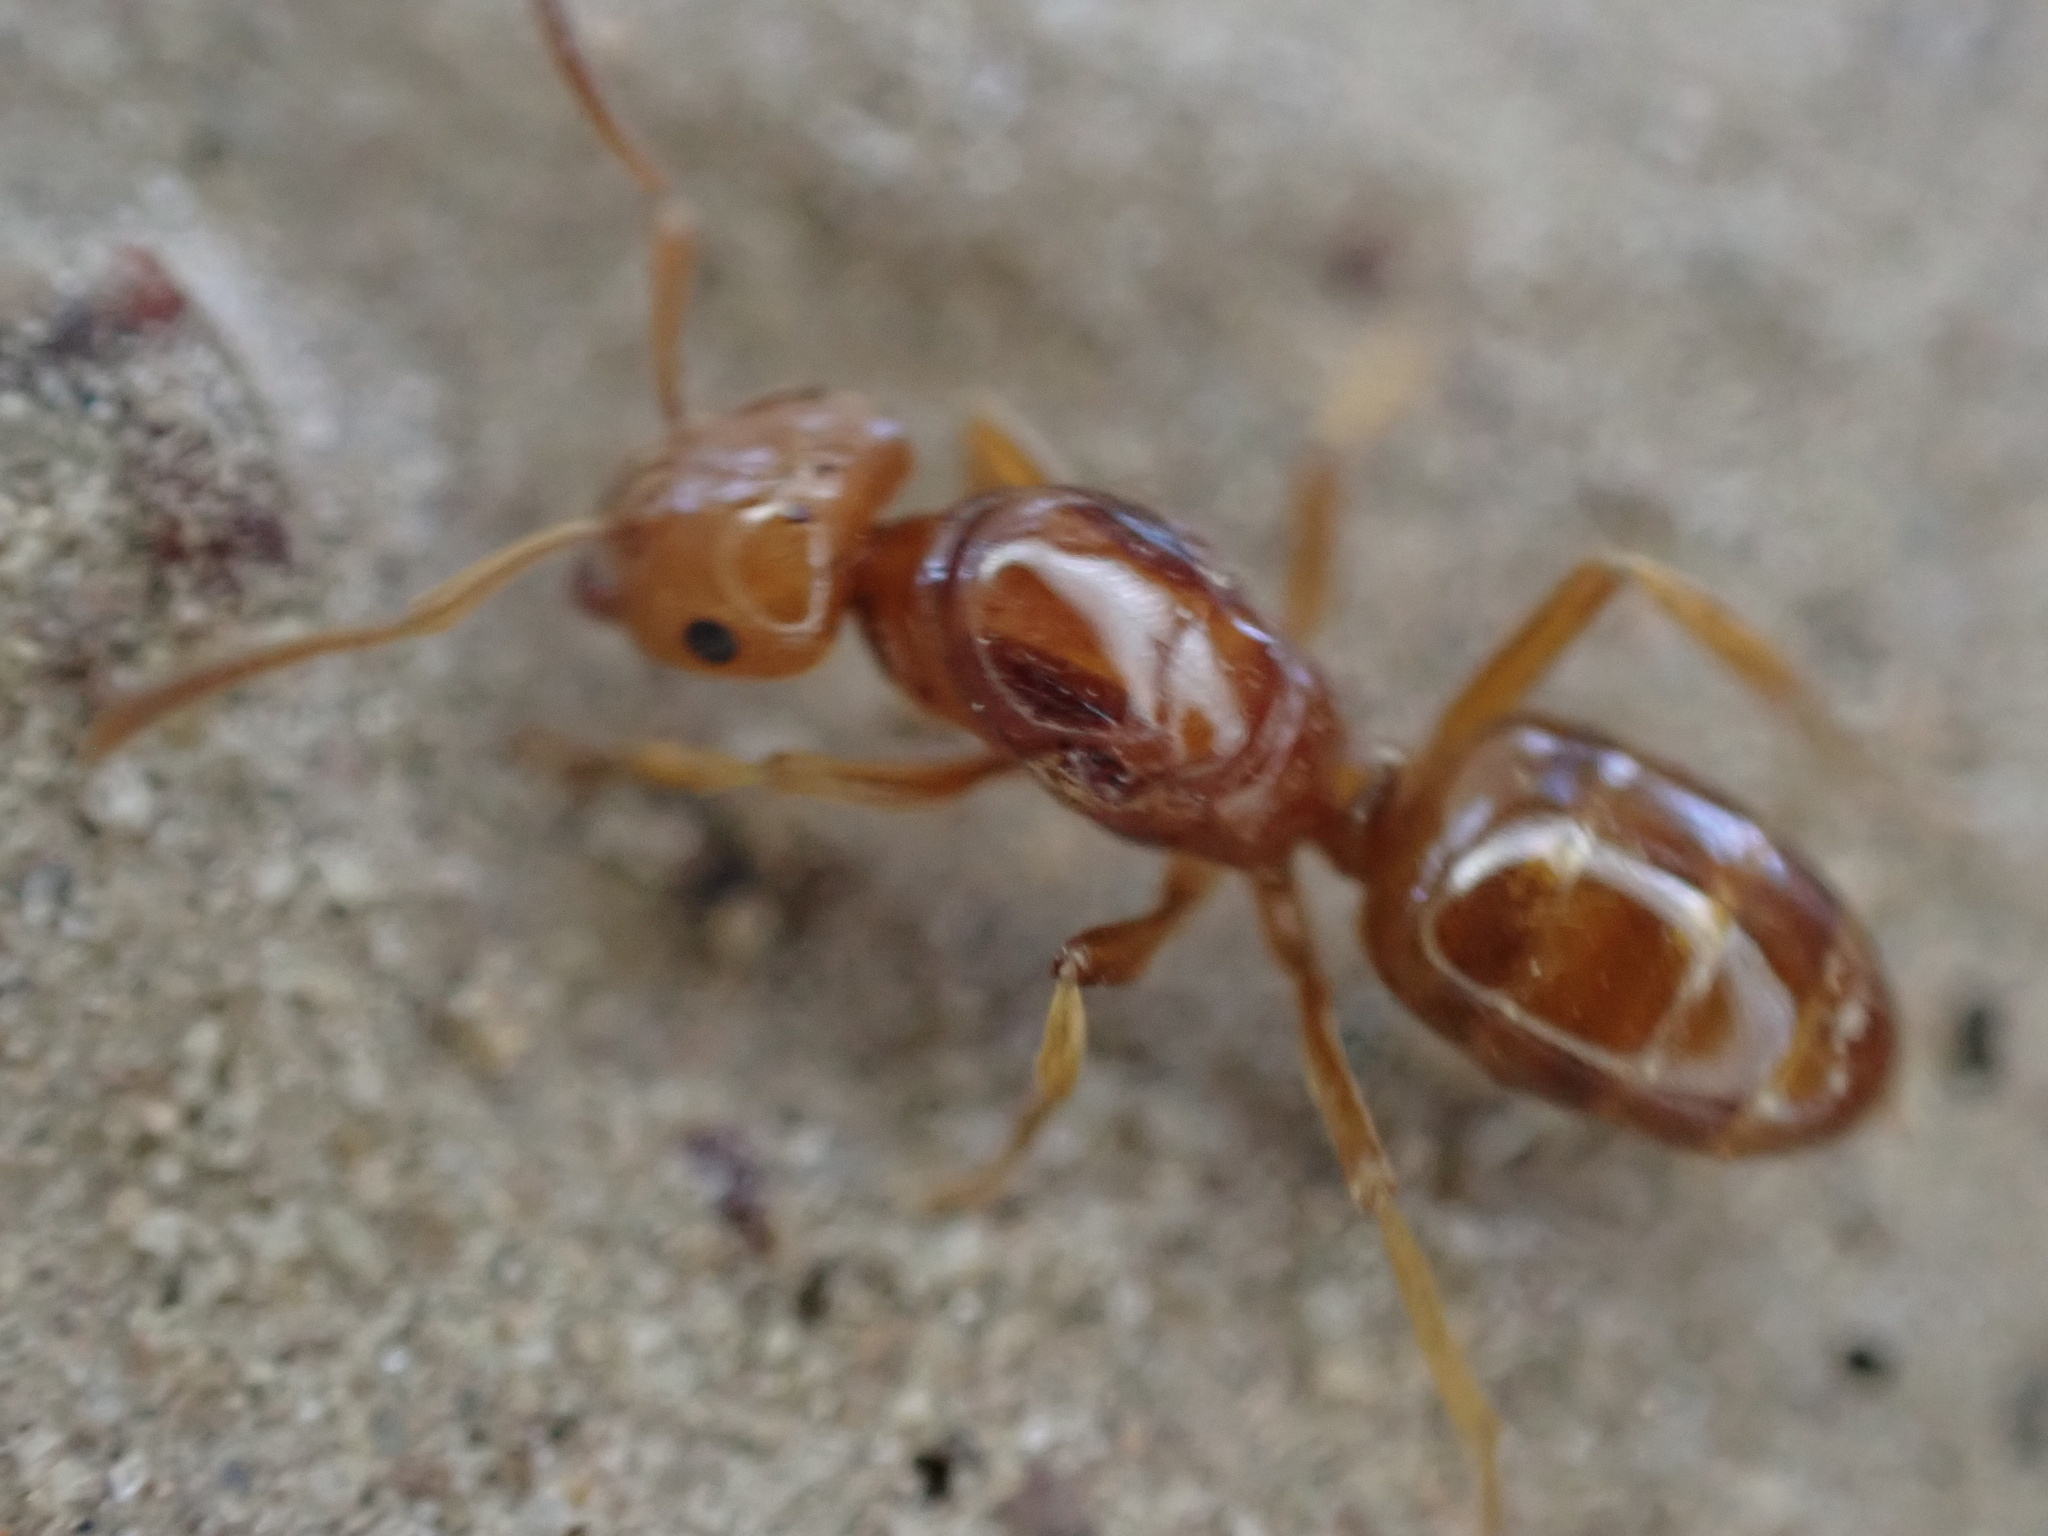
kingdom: Animalia
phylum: Arthropoda
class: Insecta
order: Hymenoptera
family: Formicidae
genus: Acanthomyops
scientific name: Acanthomyops interjectus
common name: Larger yellow ant
